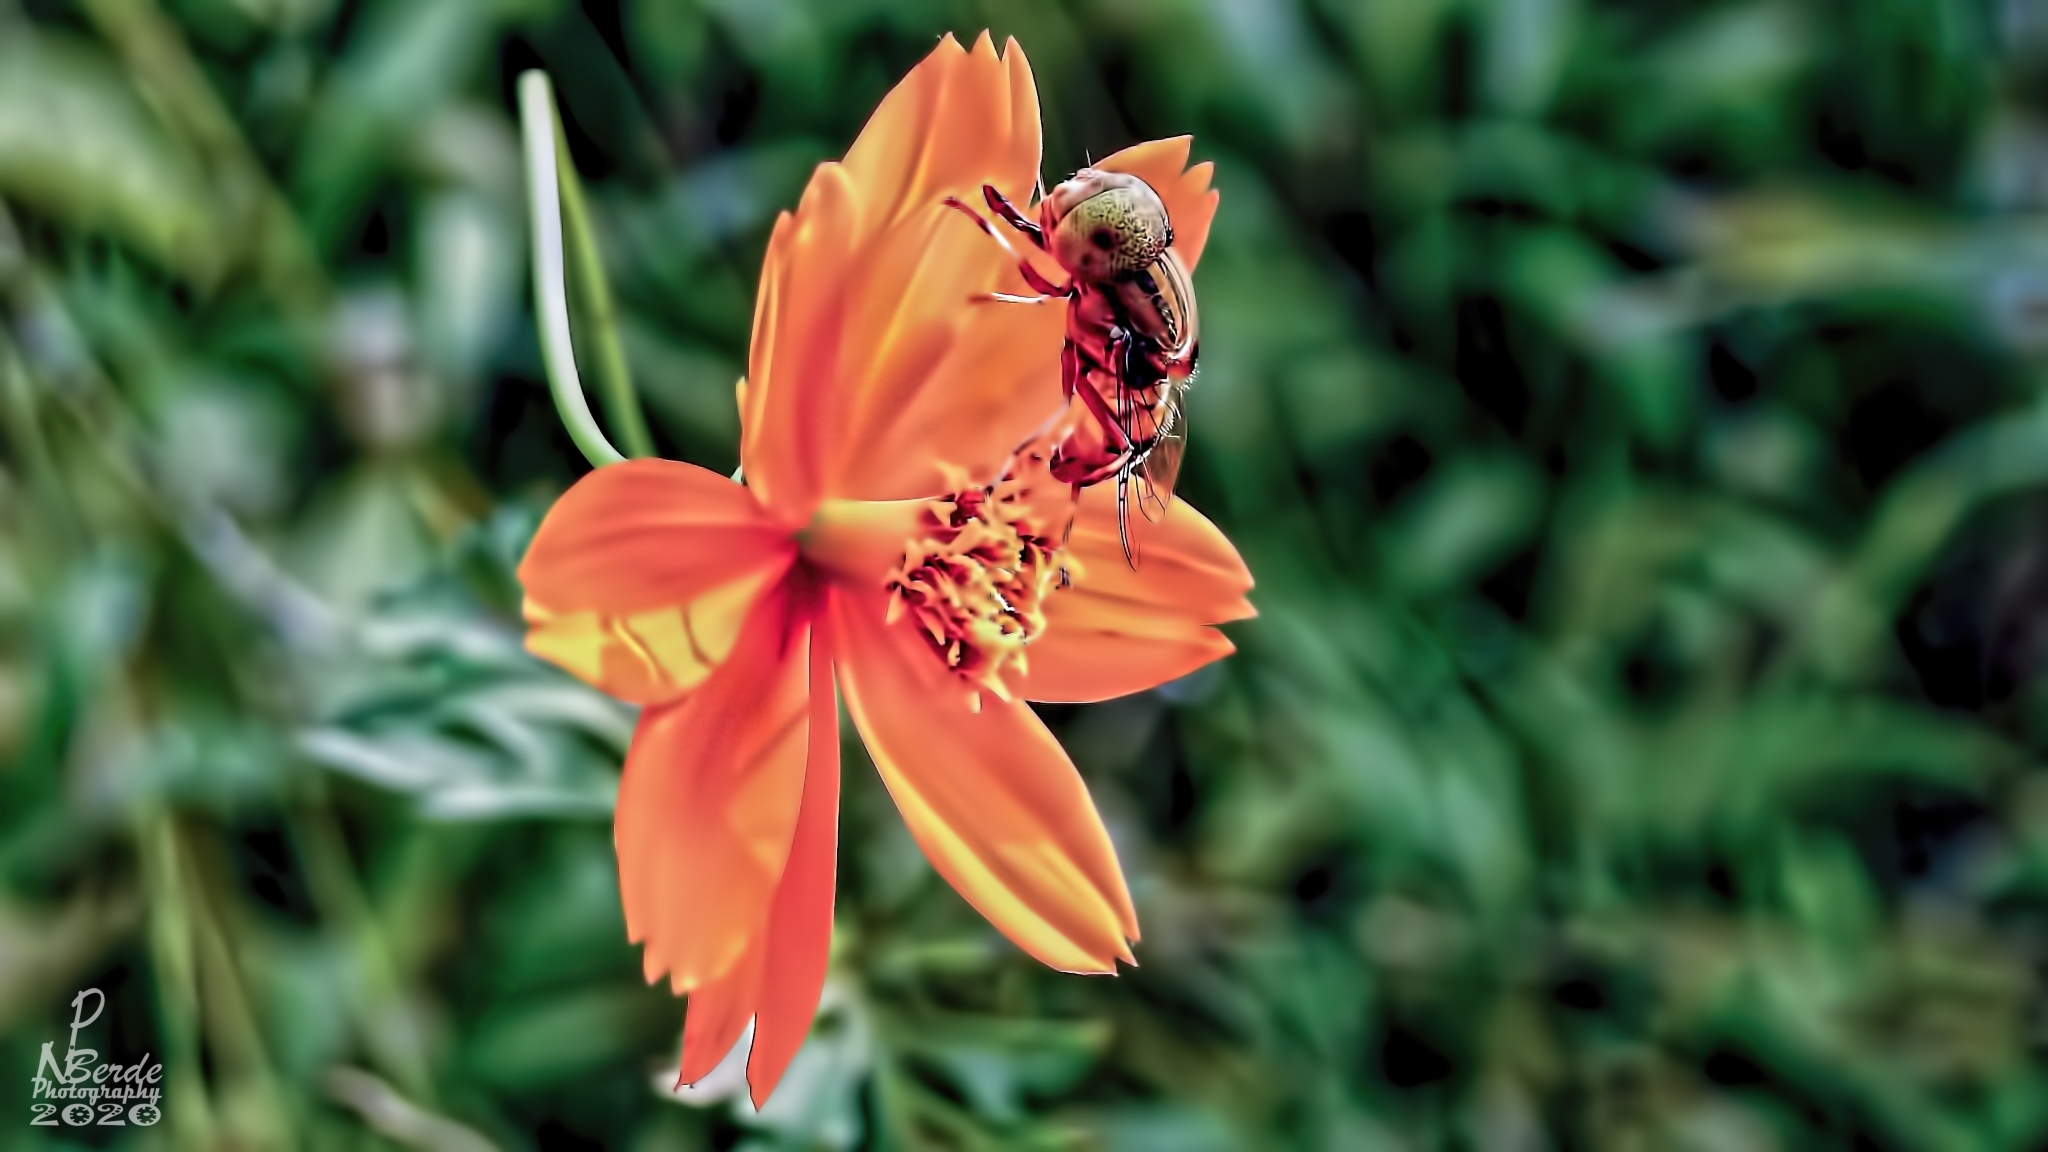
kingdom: Plantae
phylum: Tracheophyta
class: Magnoliopsida
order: Asterales
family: Asteraceae
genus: Cosmos
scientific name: Cosmos sulphureus
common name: Sulphur cosmos
